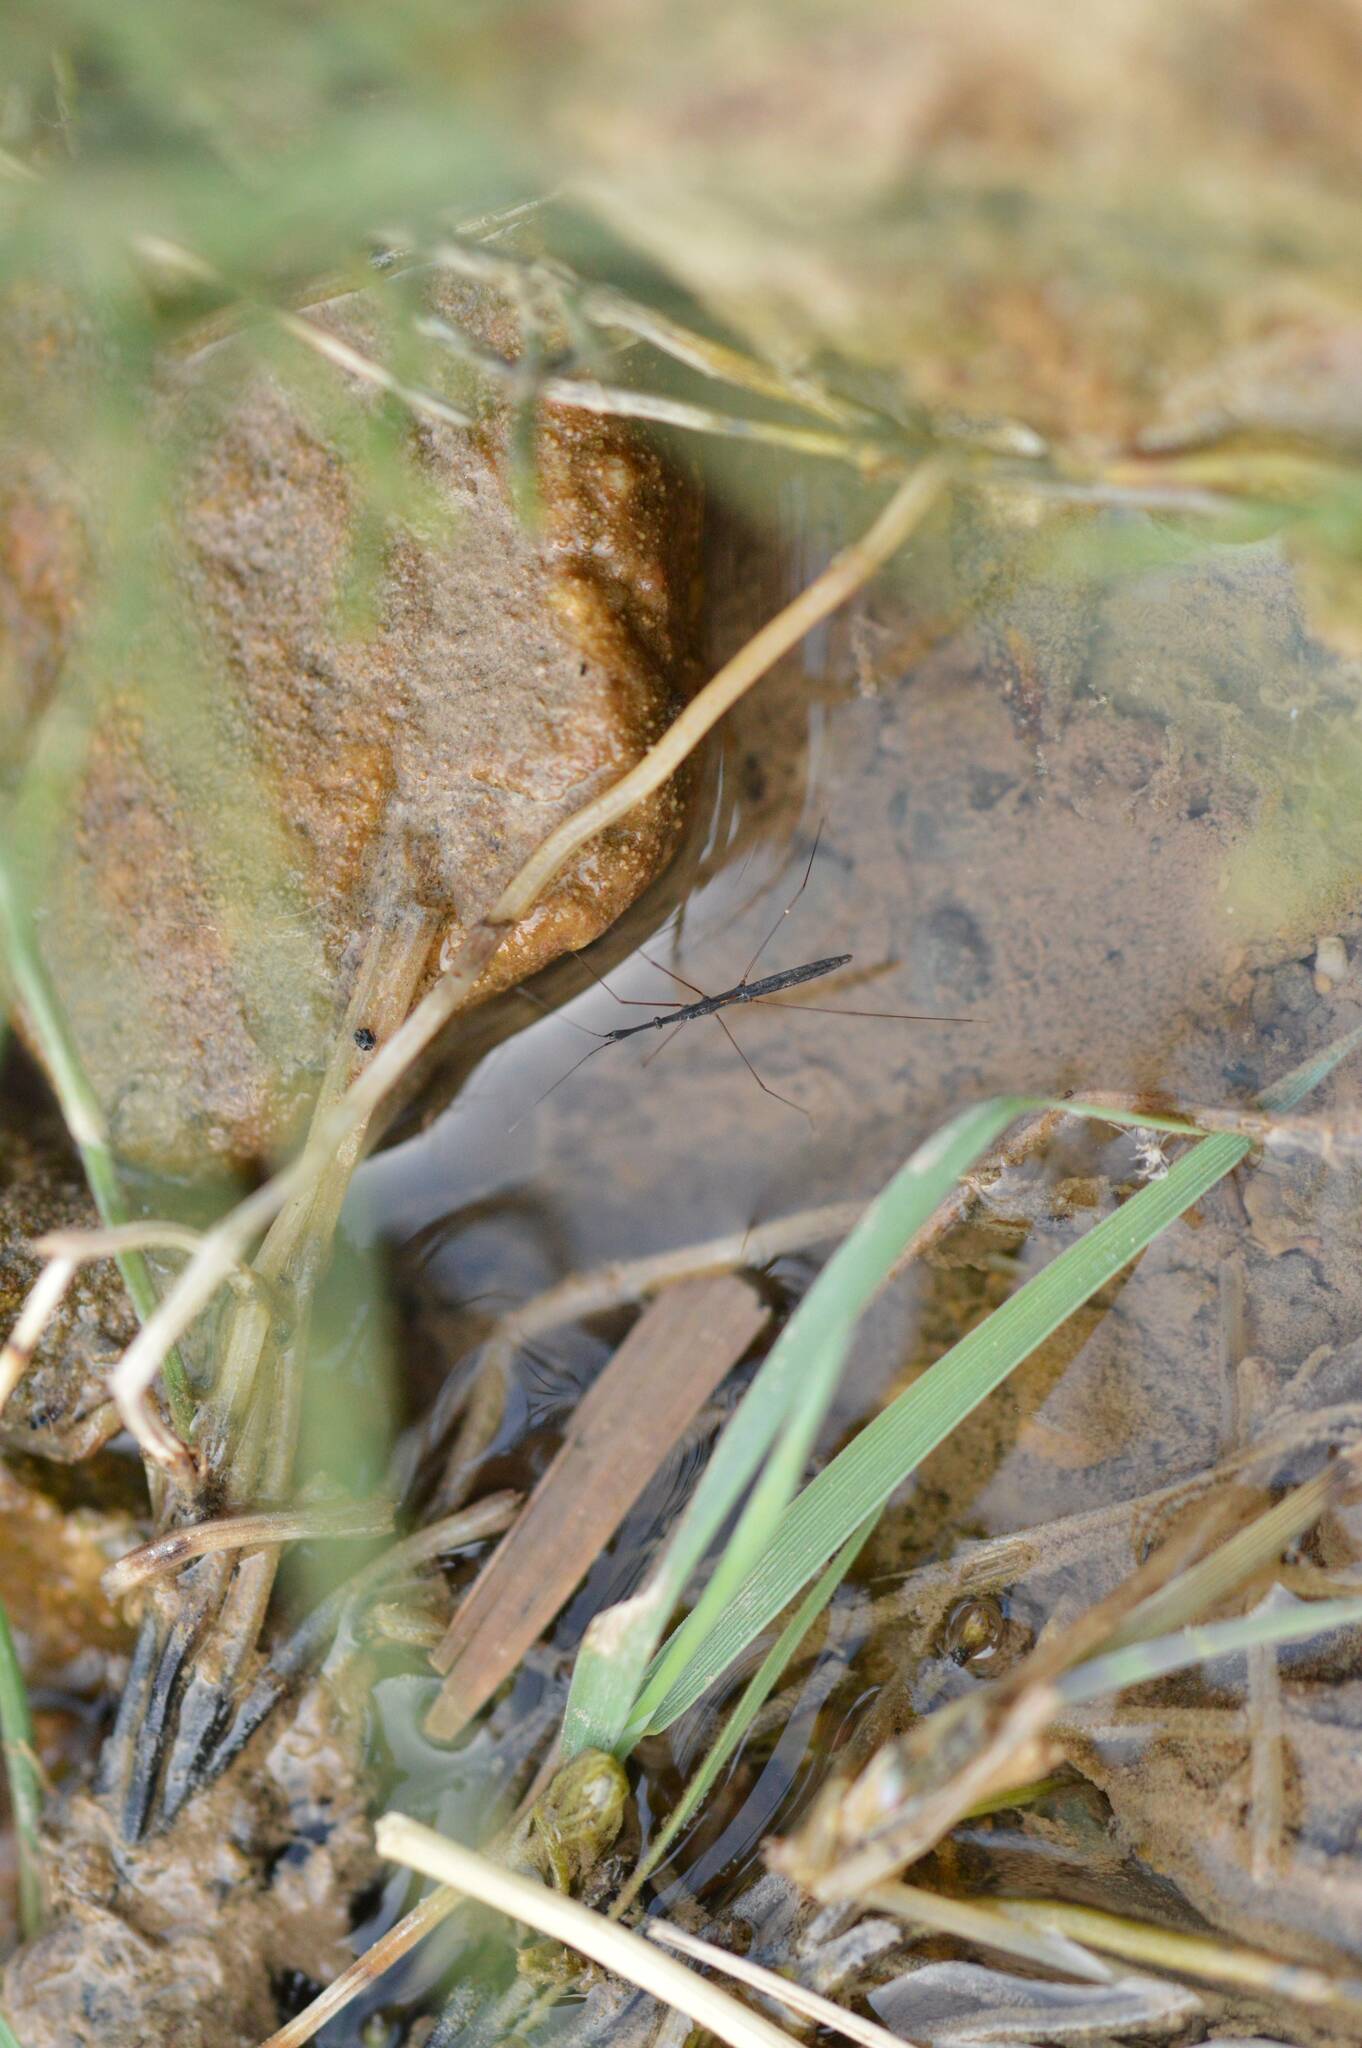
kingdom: Animalia
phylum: Arthropoda
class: Insecta
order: Hemiptera
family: Hydrometridae
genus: Hydrometra
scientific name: Hydrometra stagnorum
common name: Water measurer
